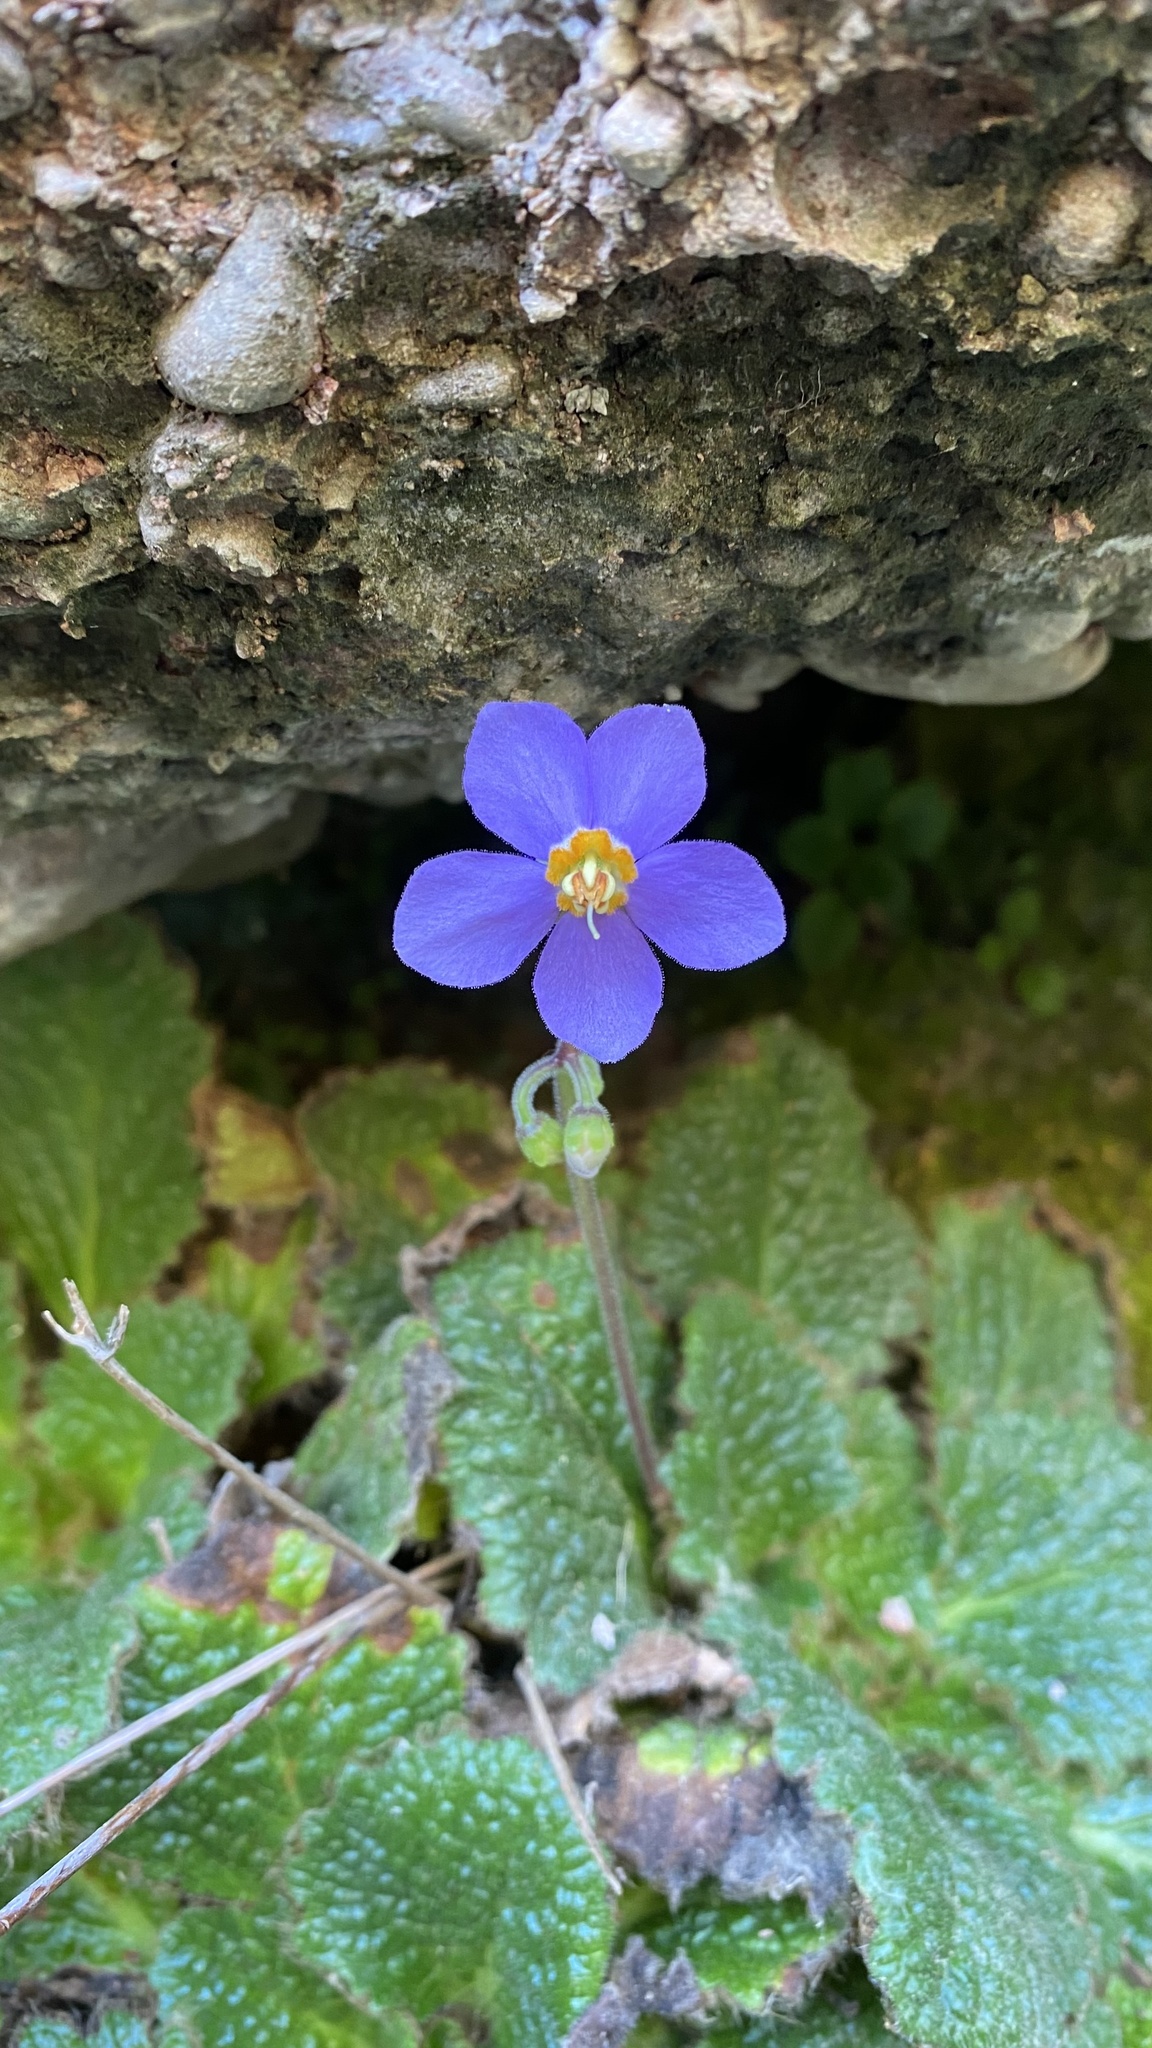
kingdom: Plantae
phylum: Tracheophyta
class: Magnoliopsida
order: Lamiales
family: Gesneriaceae
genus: Ramonda
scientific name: Ramonda myconi
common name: Pyrenean-violet
